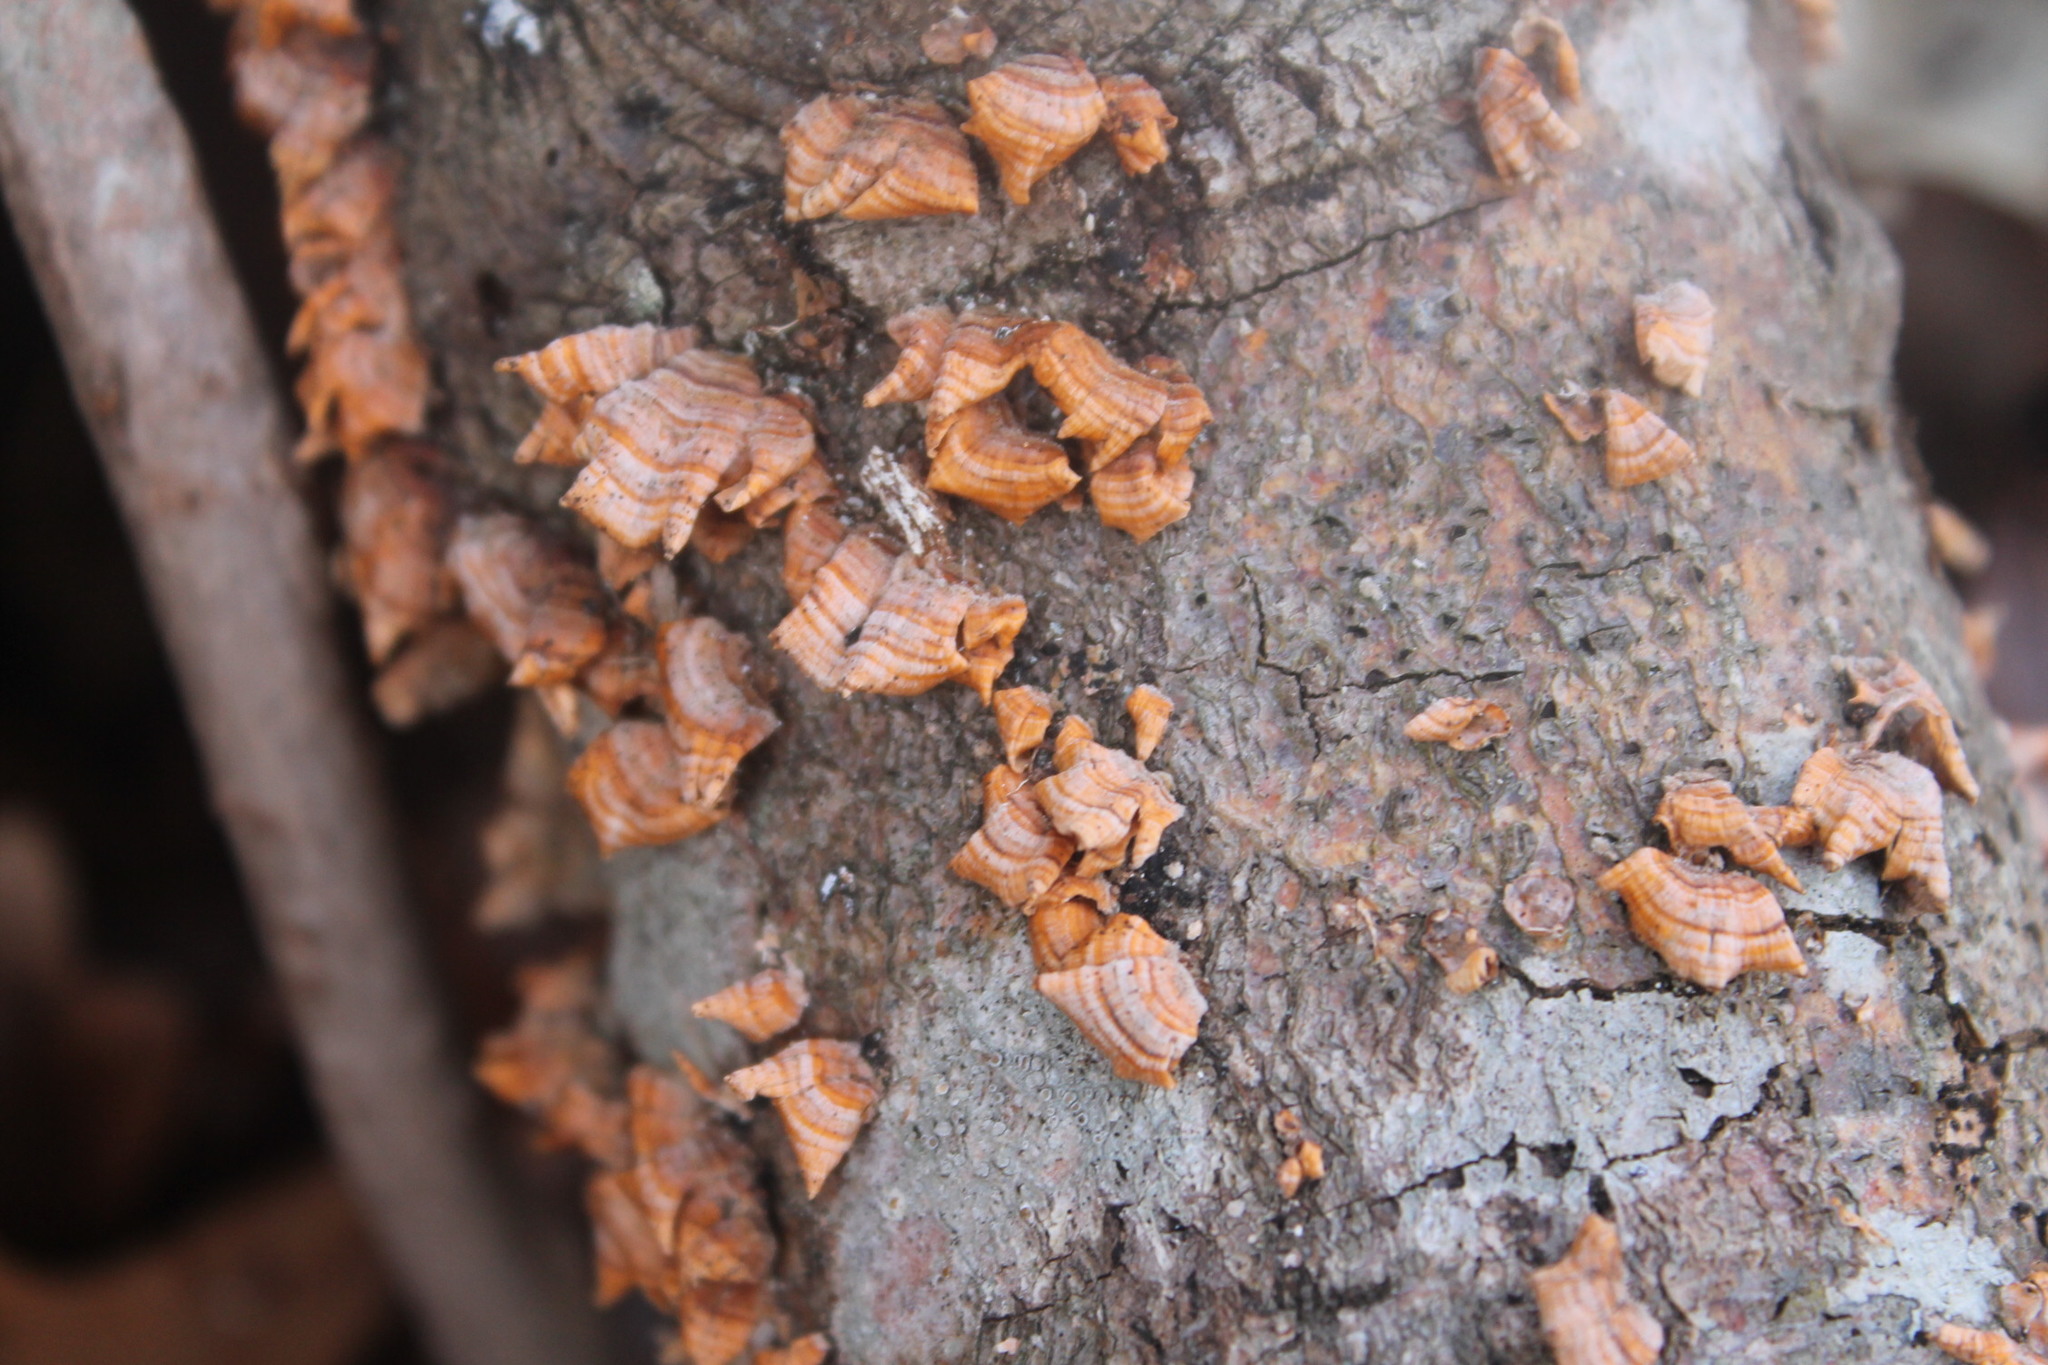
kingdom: Fungi
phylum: Basidiomycota
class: Agaricomycetes
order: Russulales
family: Stereaceae
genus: Stereum
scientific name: Stereum complicatum
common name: Crowded parchment
